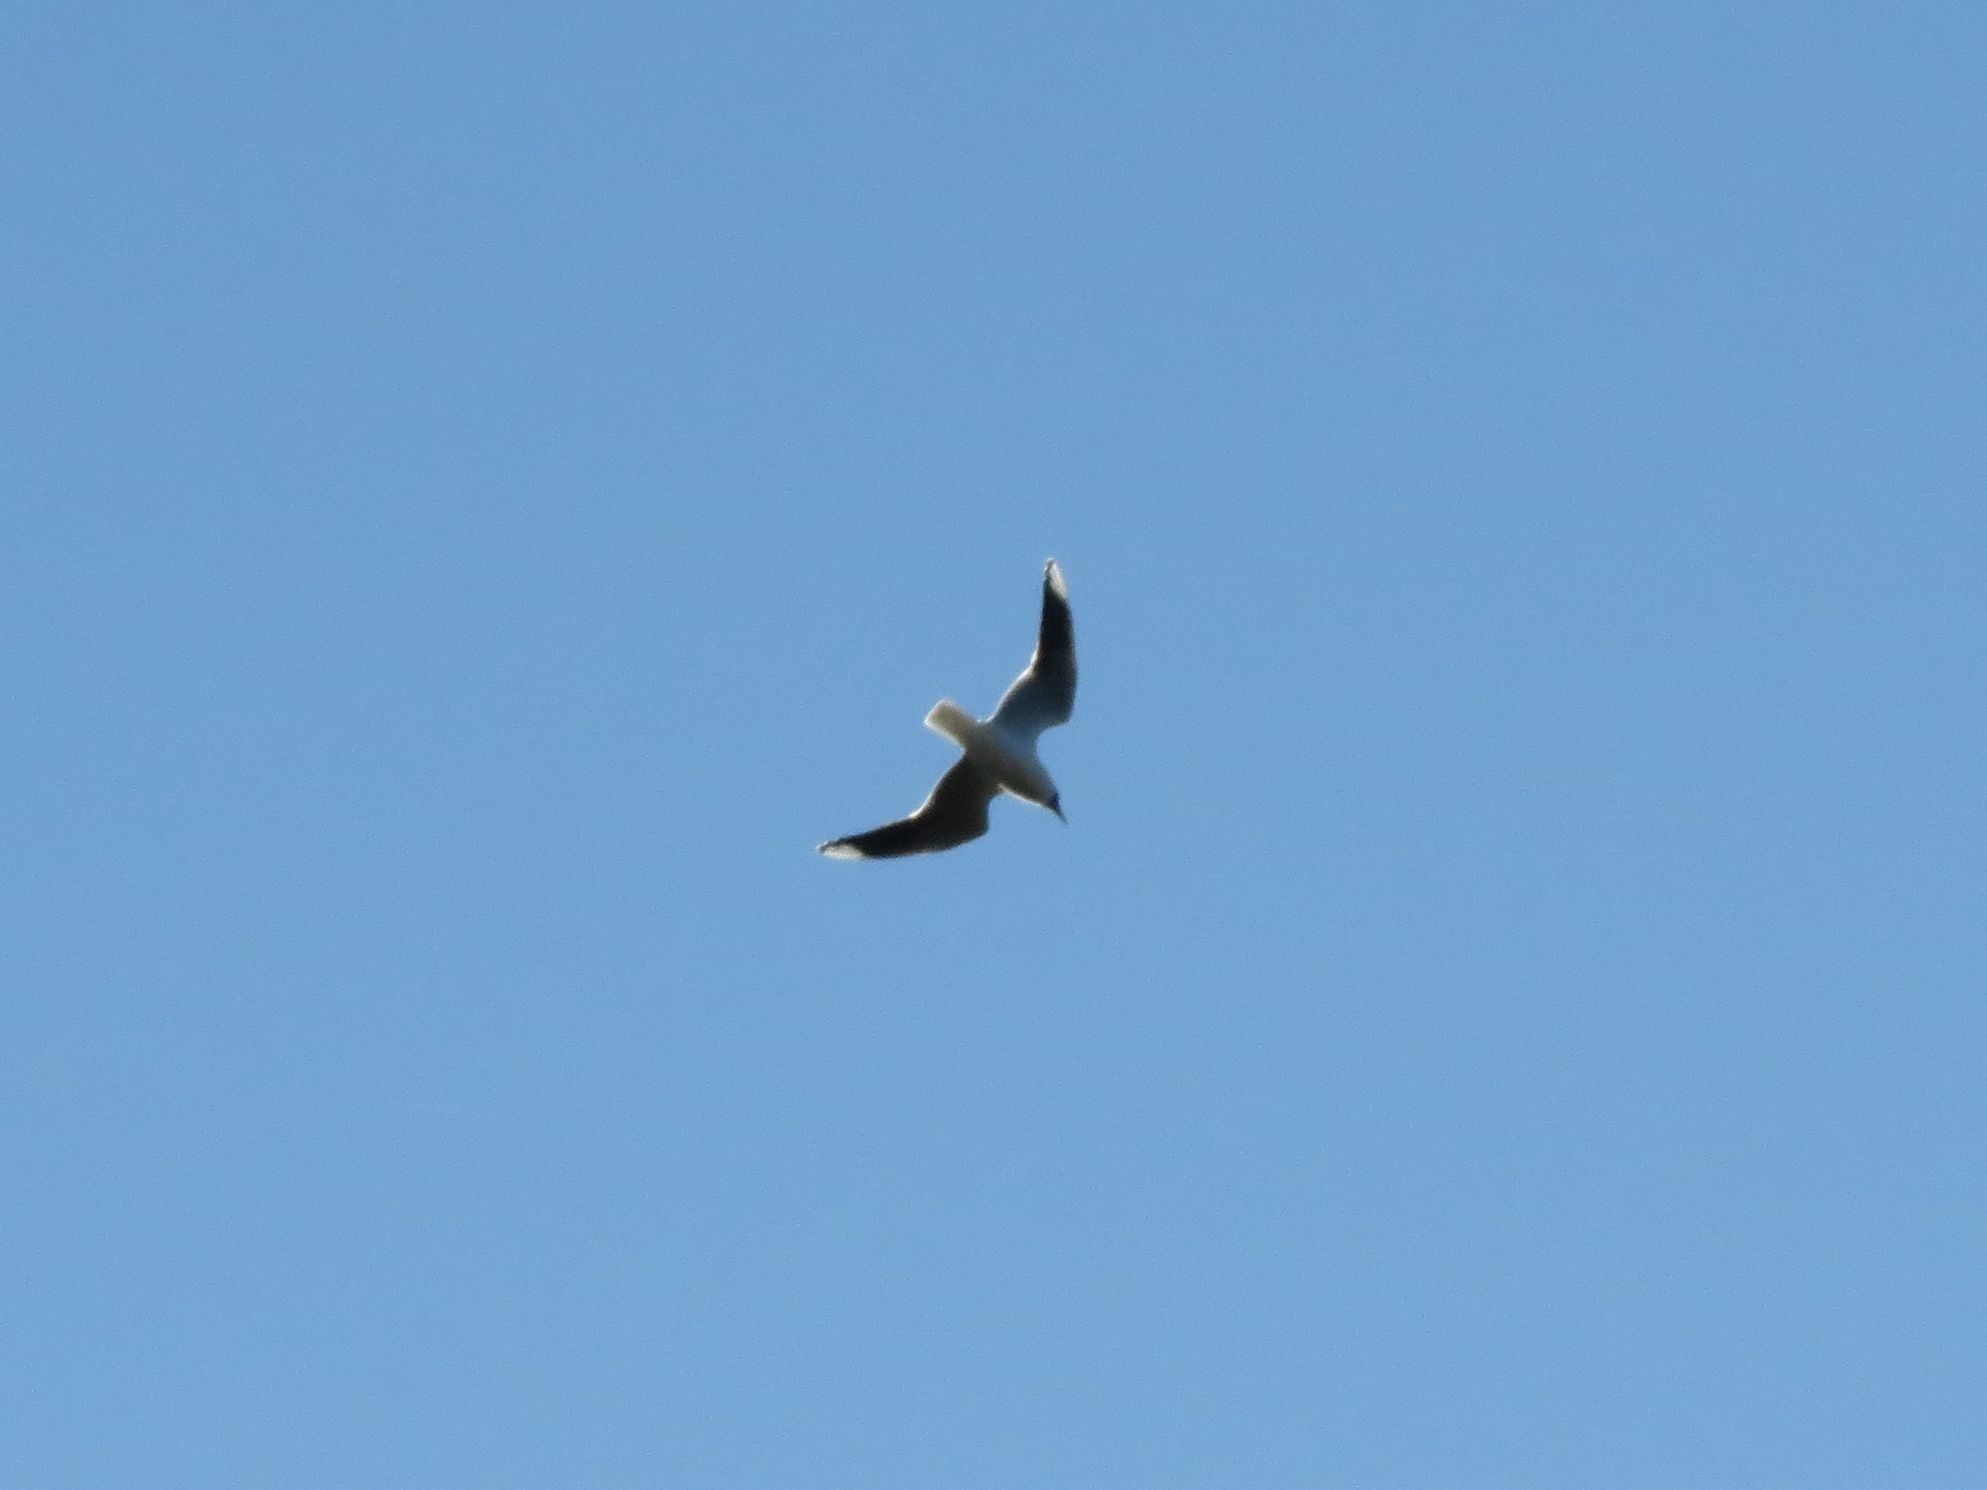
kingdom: Animalia
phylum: Chordata
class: Aves
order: Charadriiformes
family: Laridae
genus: Chroicocephalus
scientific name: Chroicocephalus maculipennis
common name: Brown-hooded gull
